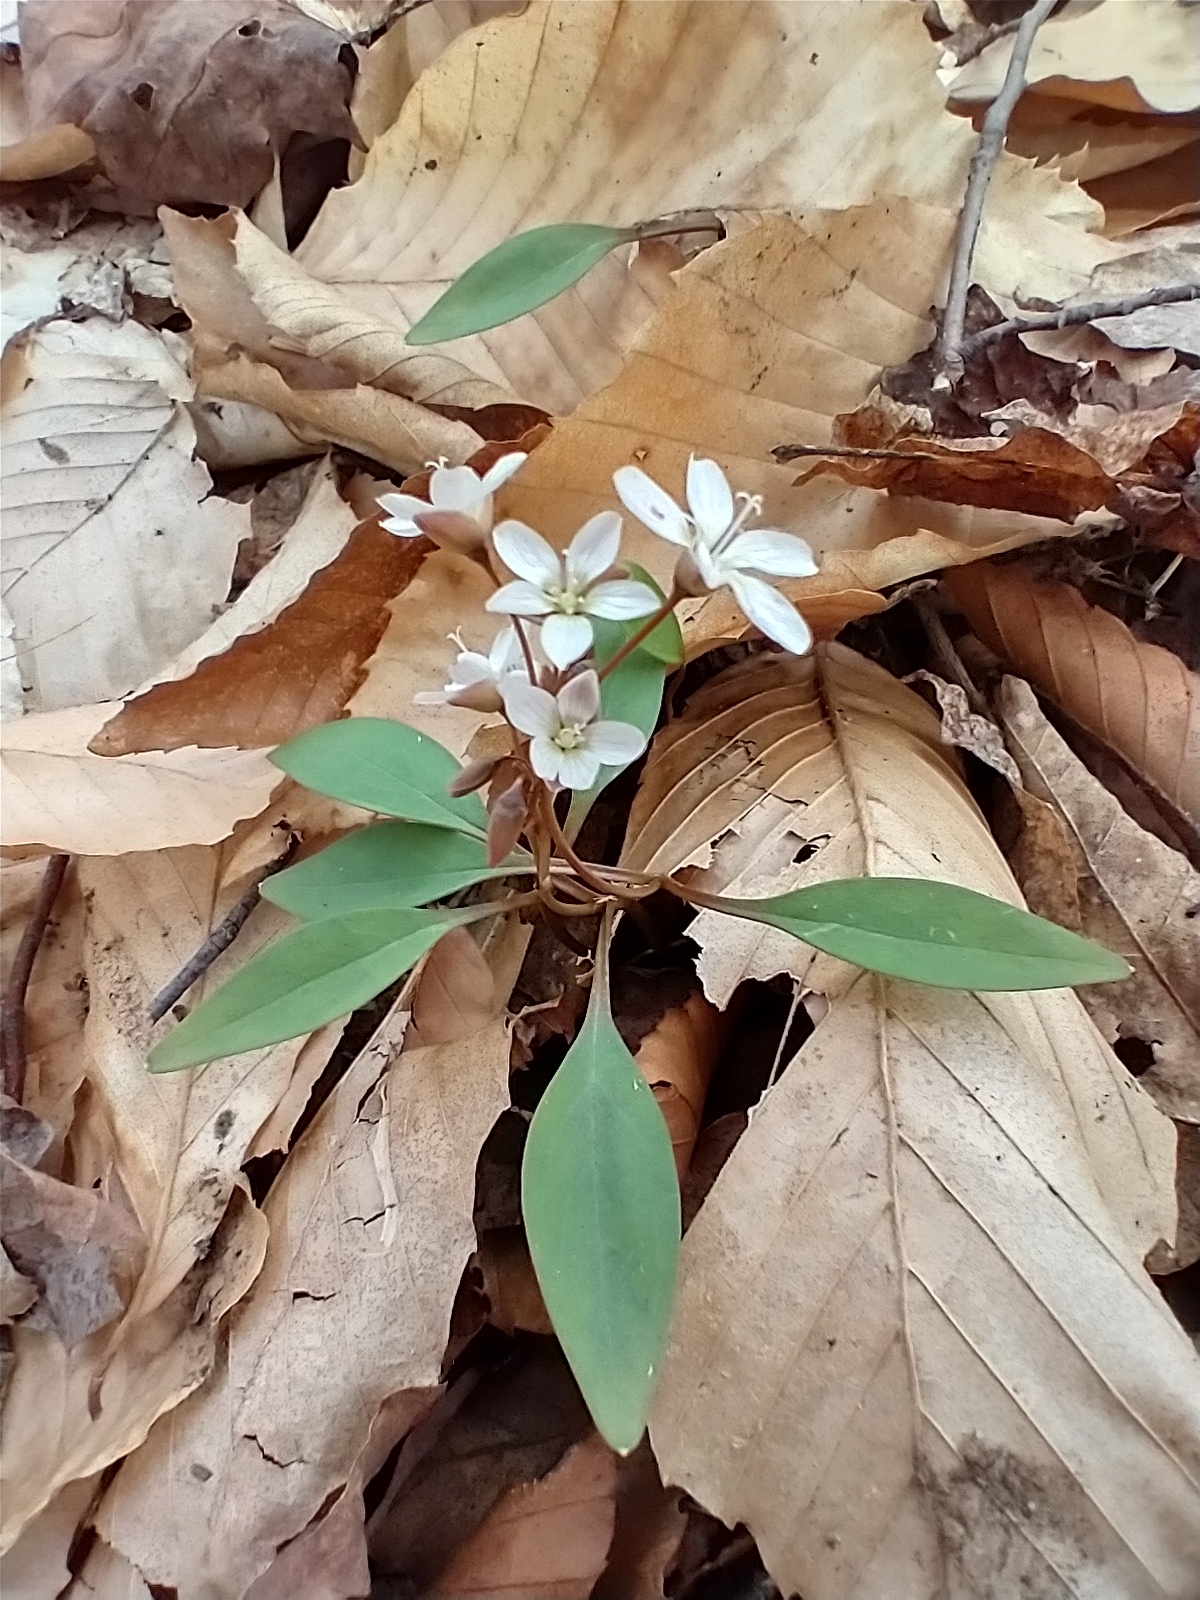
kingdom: Plantae
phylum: Tracheophyta
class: Magnoliopsida
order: Caryophyllales
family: Montiaceae
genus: Claytonia
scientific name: Claytonia caroliniana
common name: Carolina spring beauty
